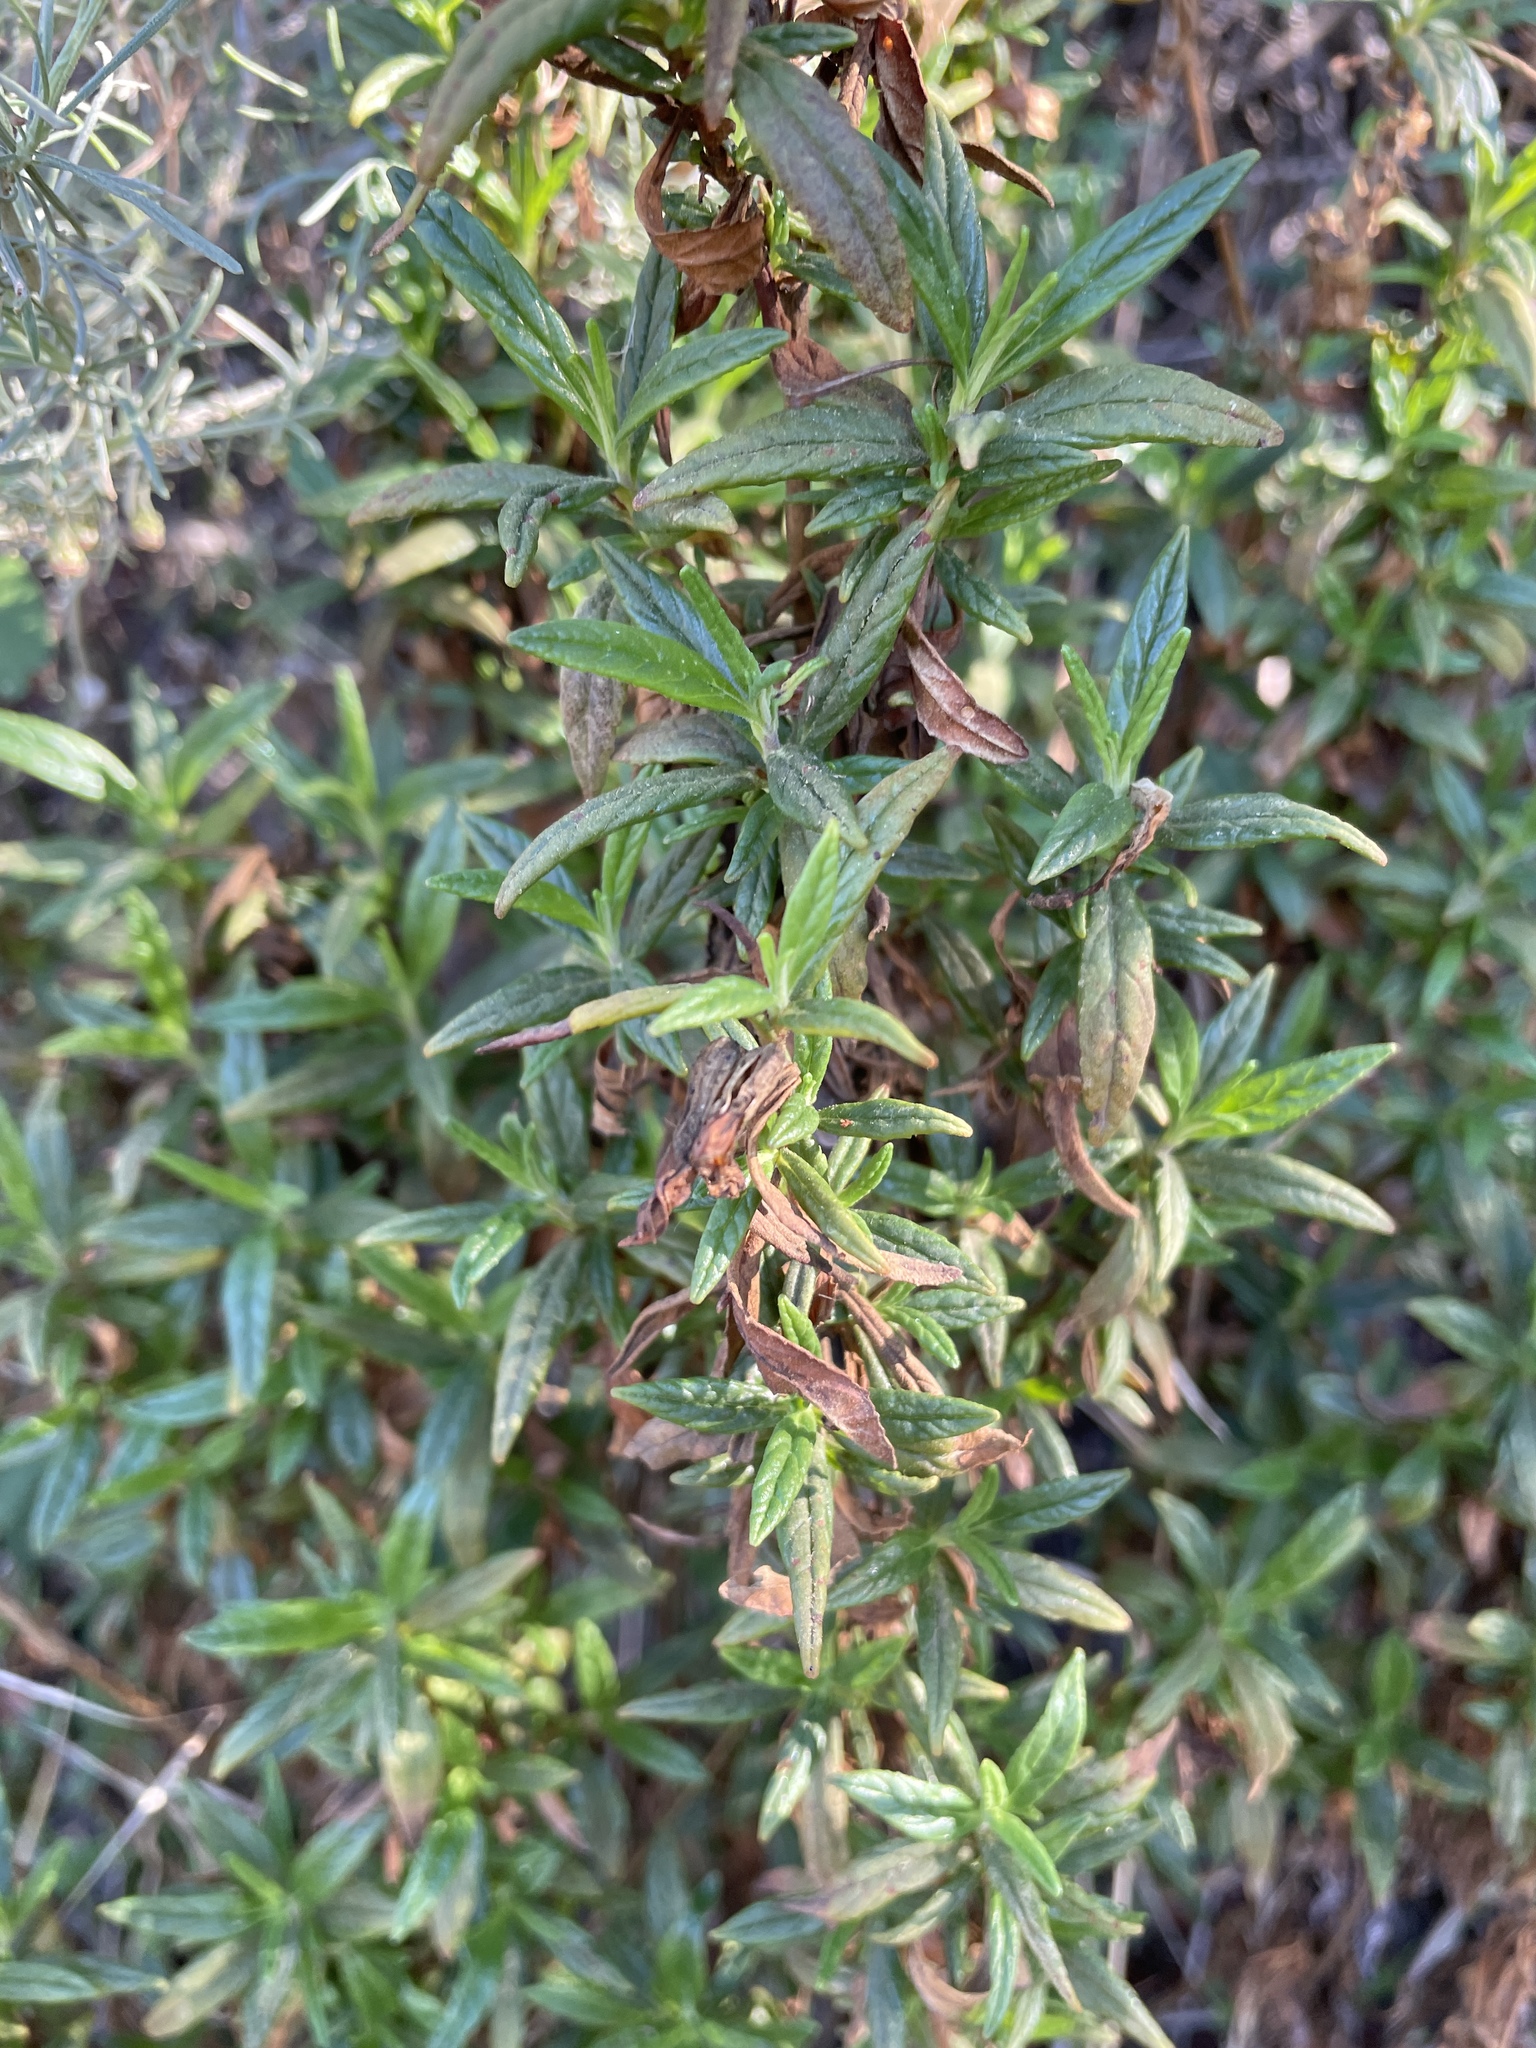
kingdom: Plantae
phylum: Tracheophyta
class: Magnoliopsida
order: Lamiales
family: Phrymaceae
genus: Diplacus
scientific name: Diplacus aurantiacus
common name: Bush monkey-flower
